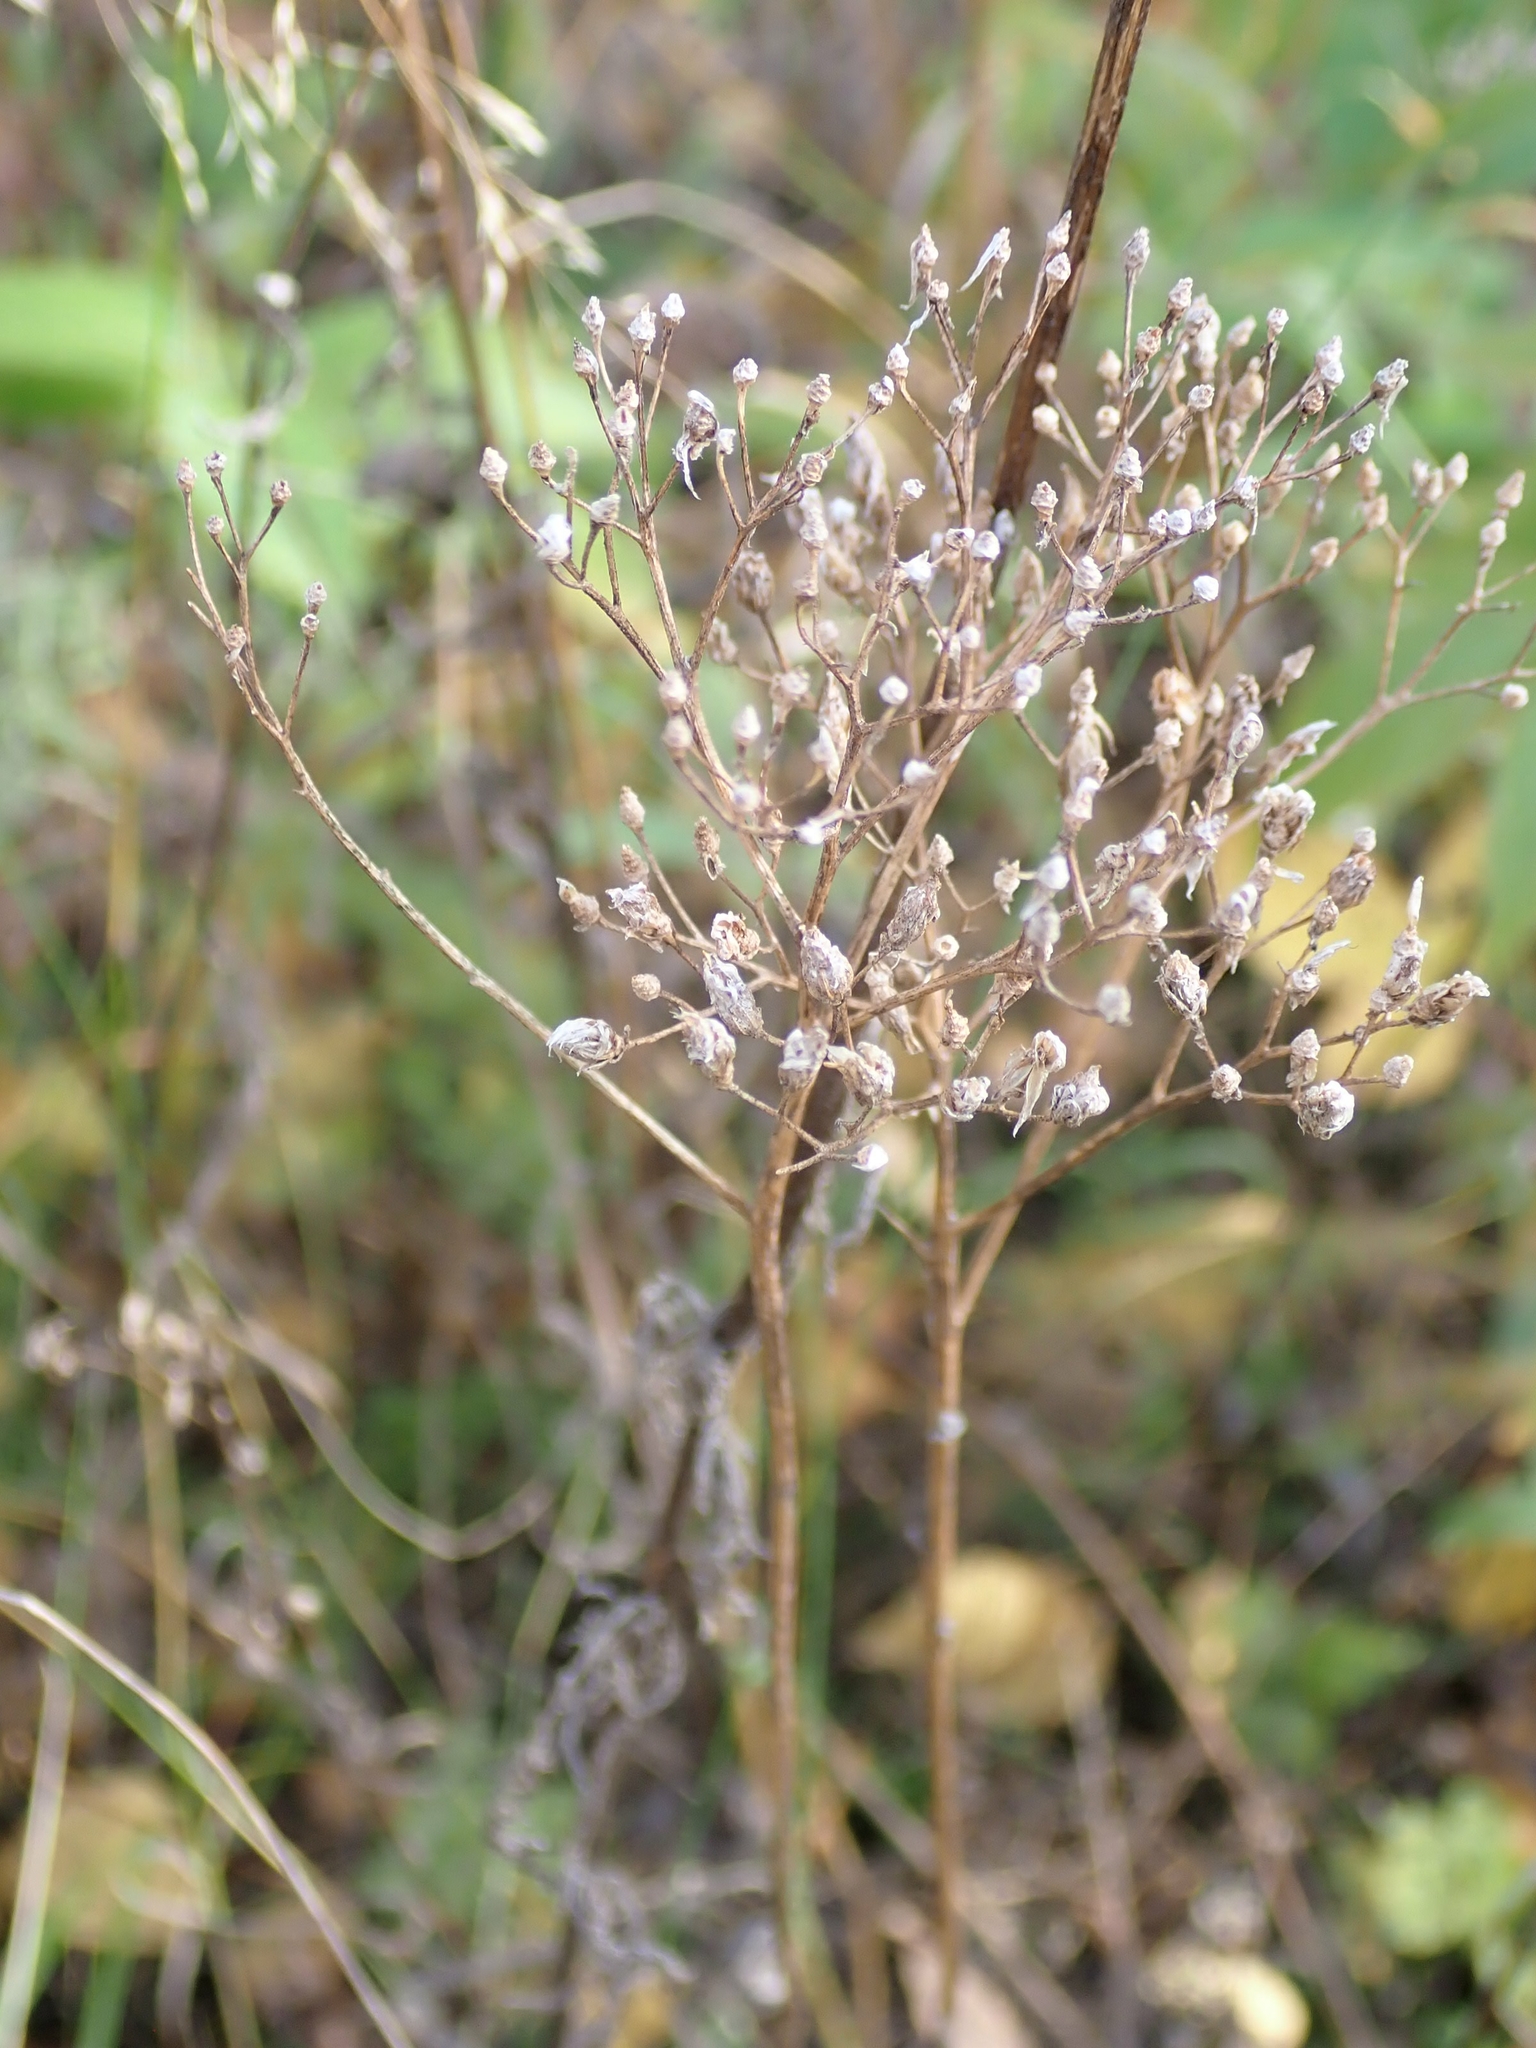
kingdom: Plantae
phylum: Tracheophyta
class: Magnoliopsida
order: Asterales
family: Asteraceae
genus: Achillea
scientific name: Achillea millefolium
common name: Yarrow
